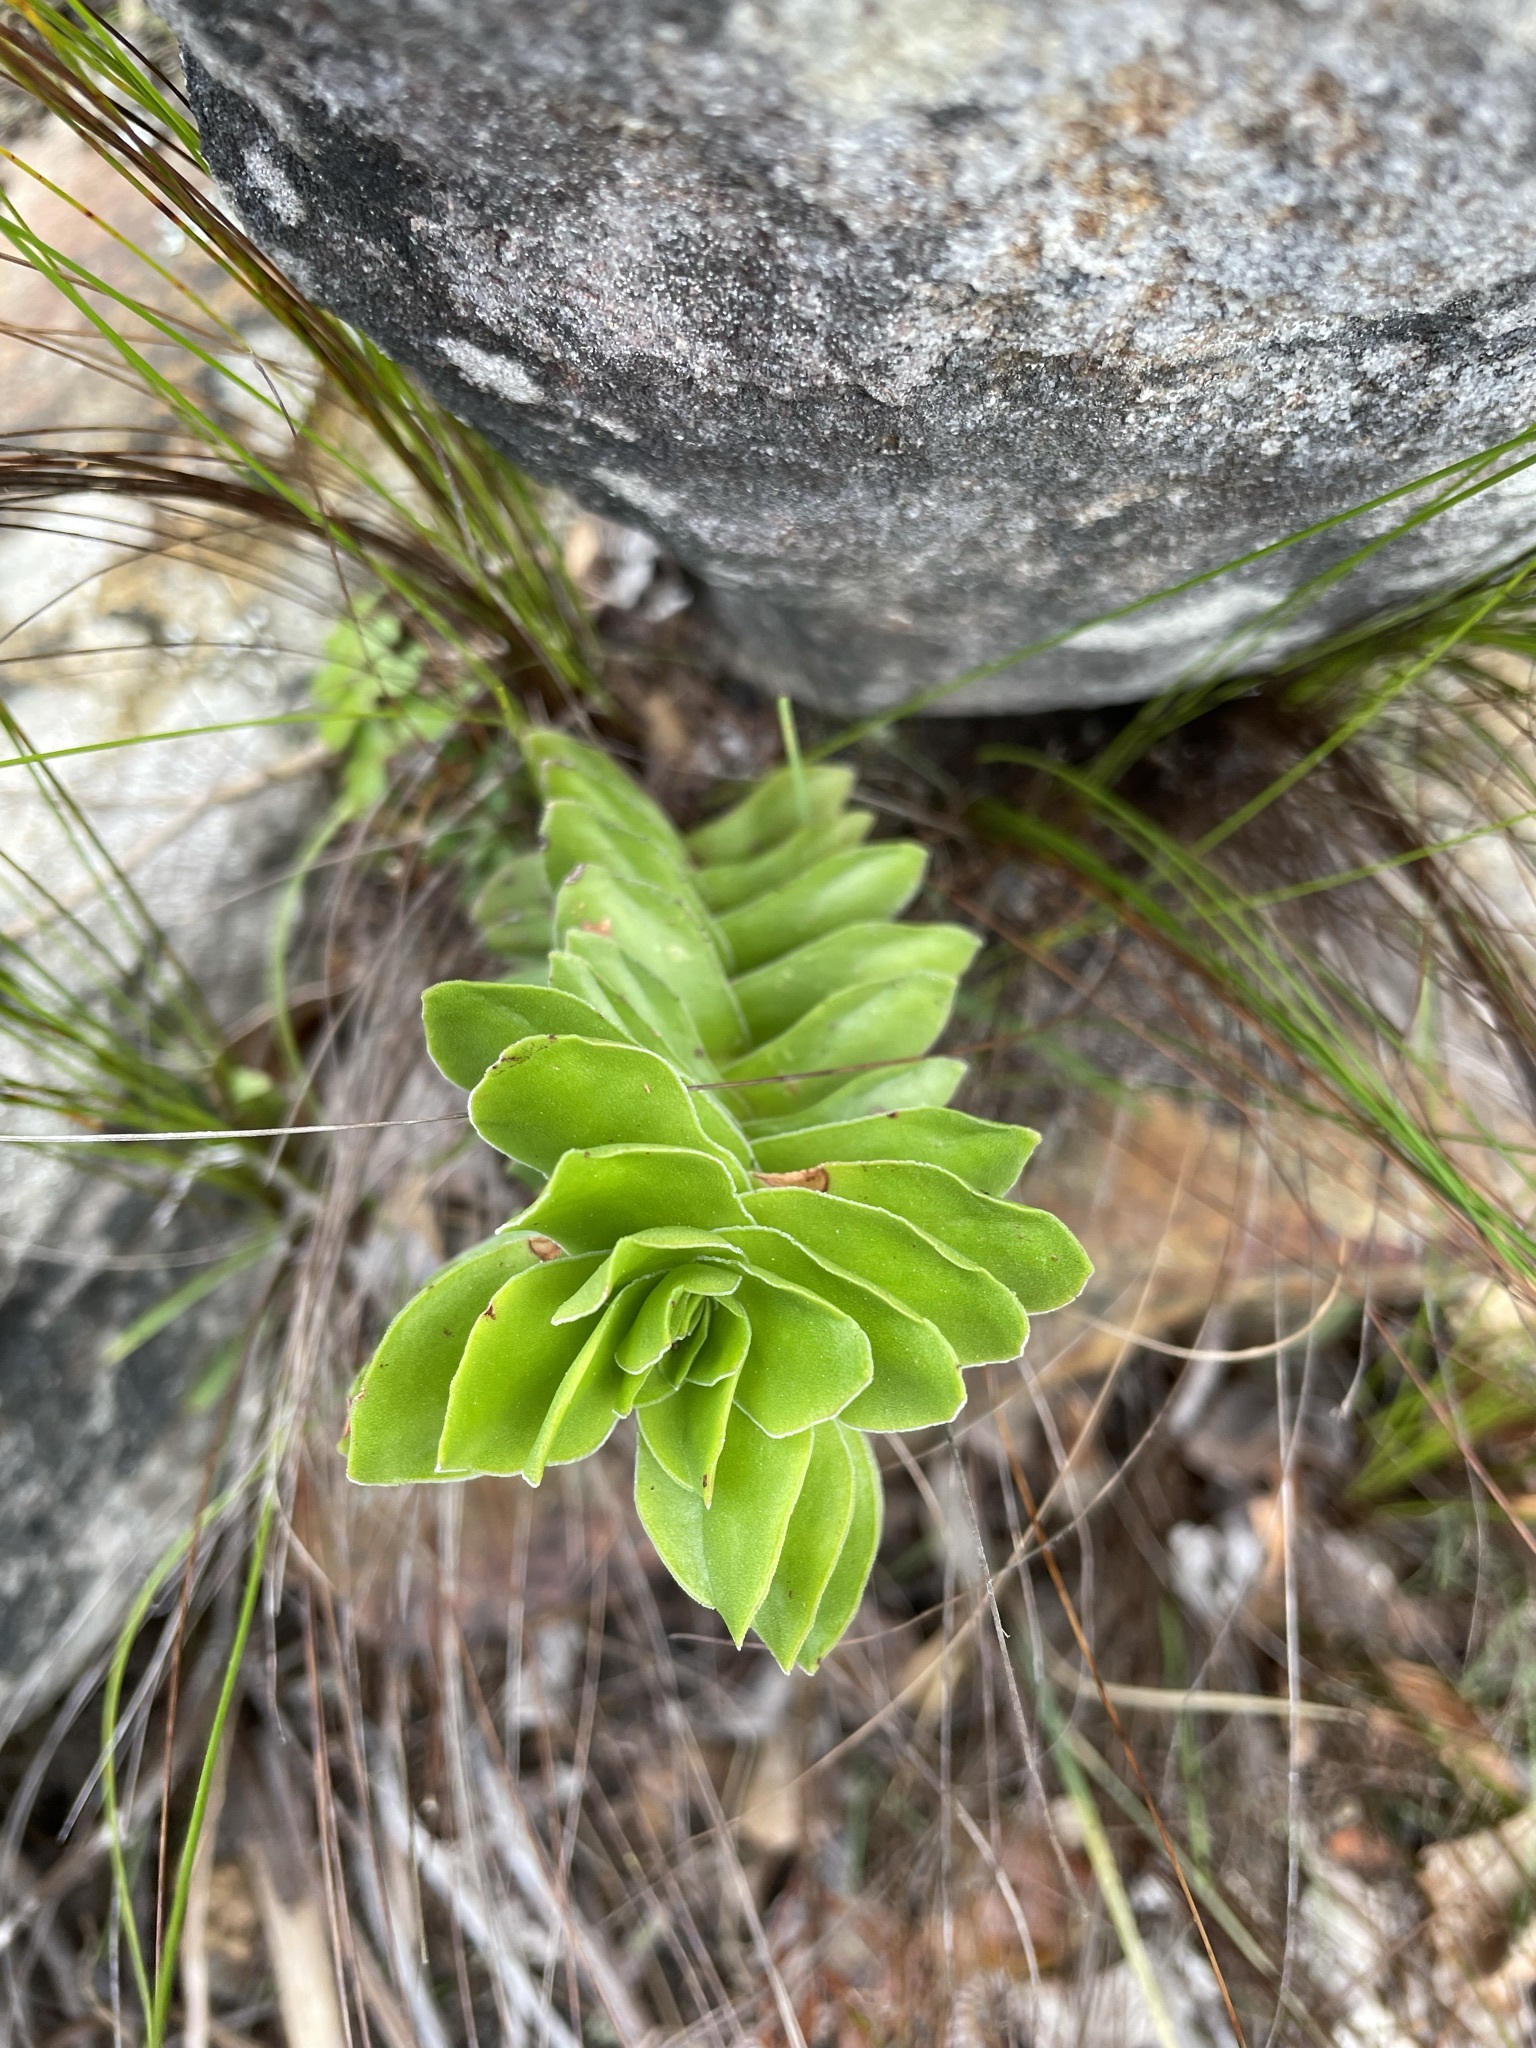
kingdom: Plantae
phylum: Tracheophyta
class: Magnoliopsida
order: Saxifragales
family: Crassulaceae
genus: Crassula
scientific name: Crassula coccinea
